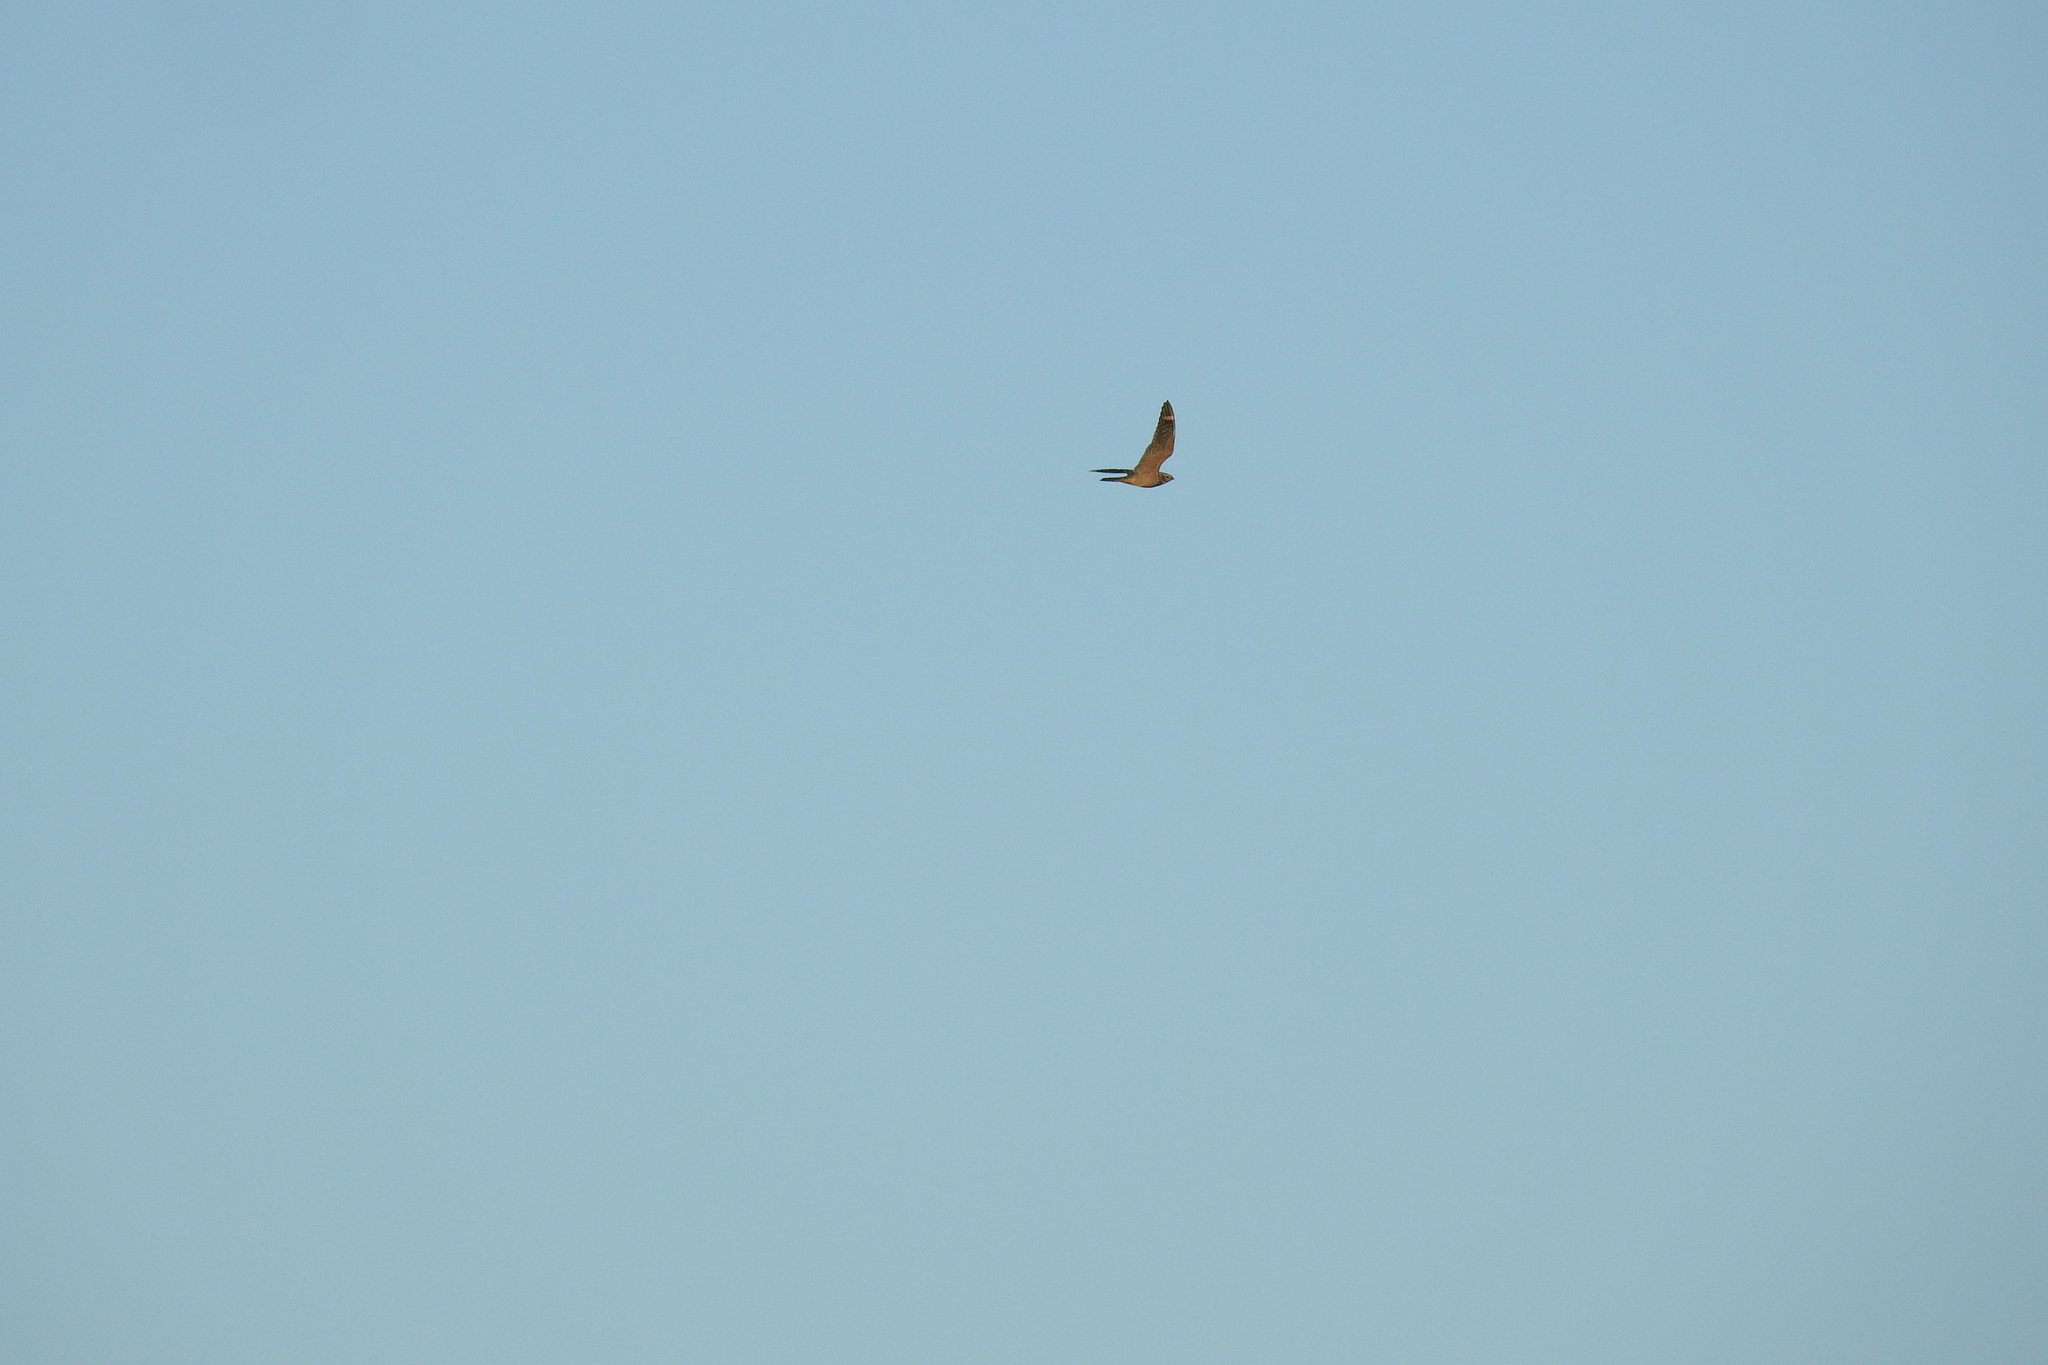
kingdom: Animalia
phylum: Chordata
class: Aves
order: Caprimulgiformes
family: Caprimulgidae
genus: Chordeiles
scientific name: Chordeiles acutipennis
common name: Lesser nighthawk
